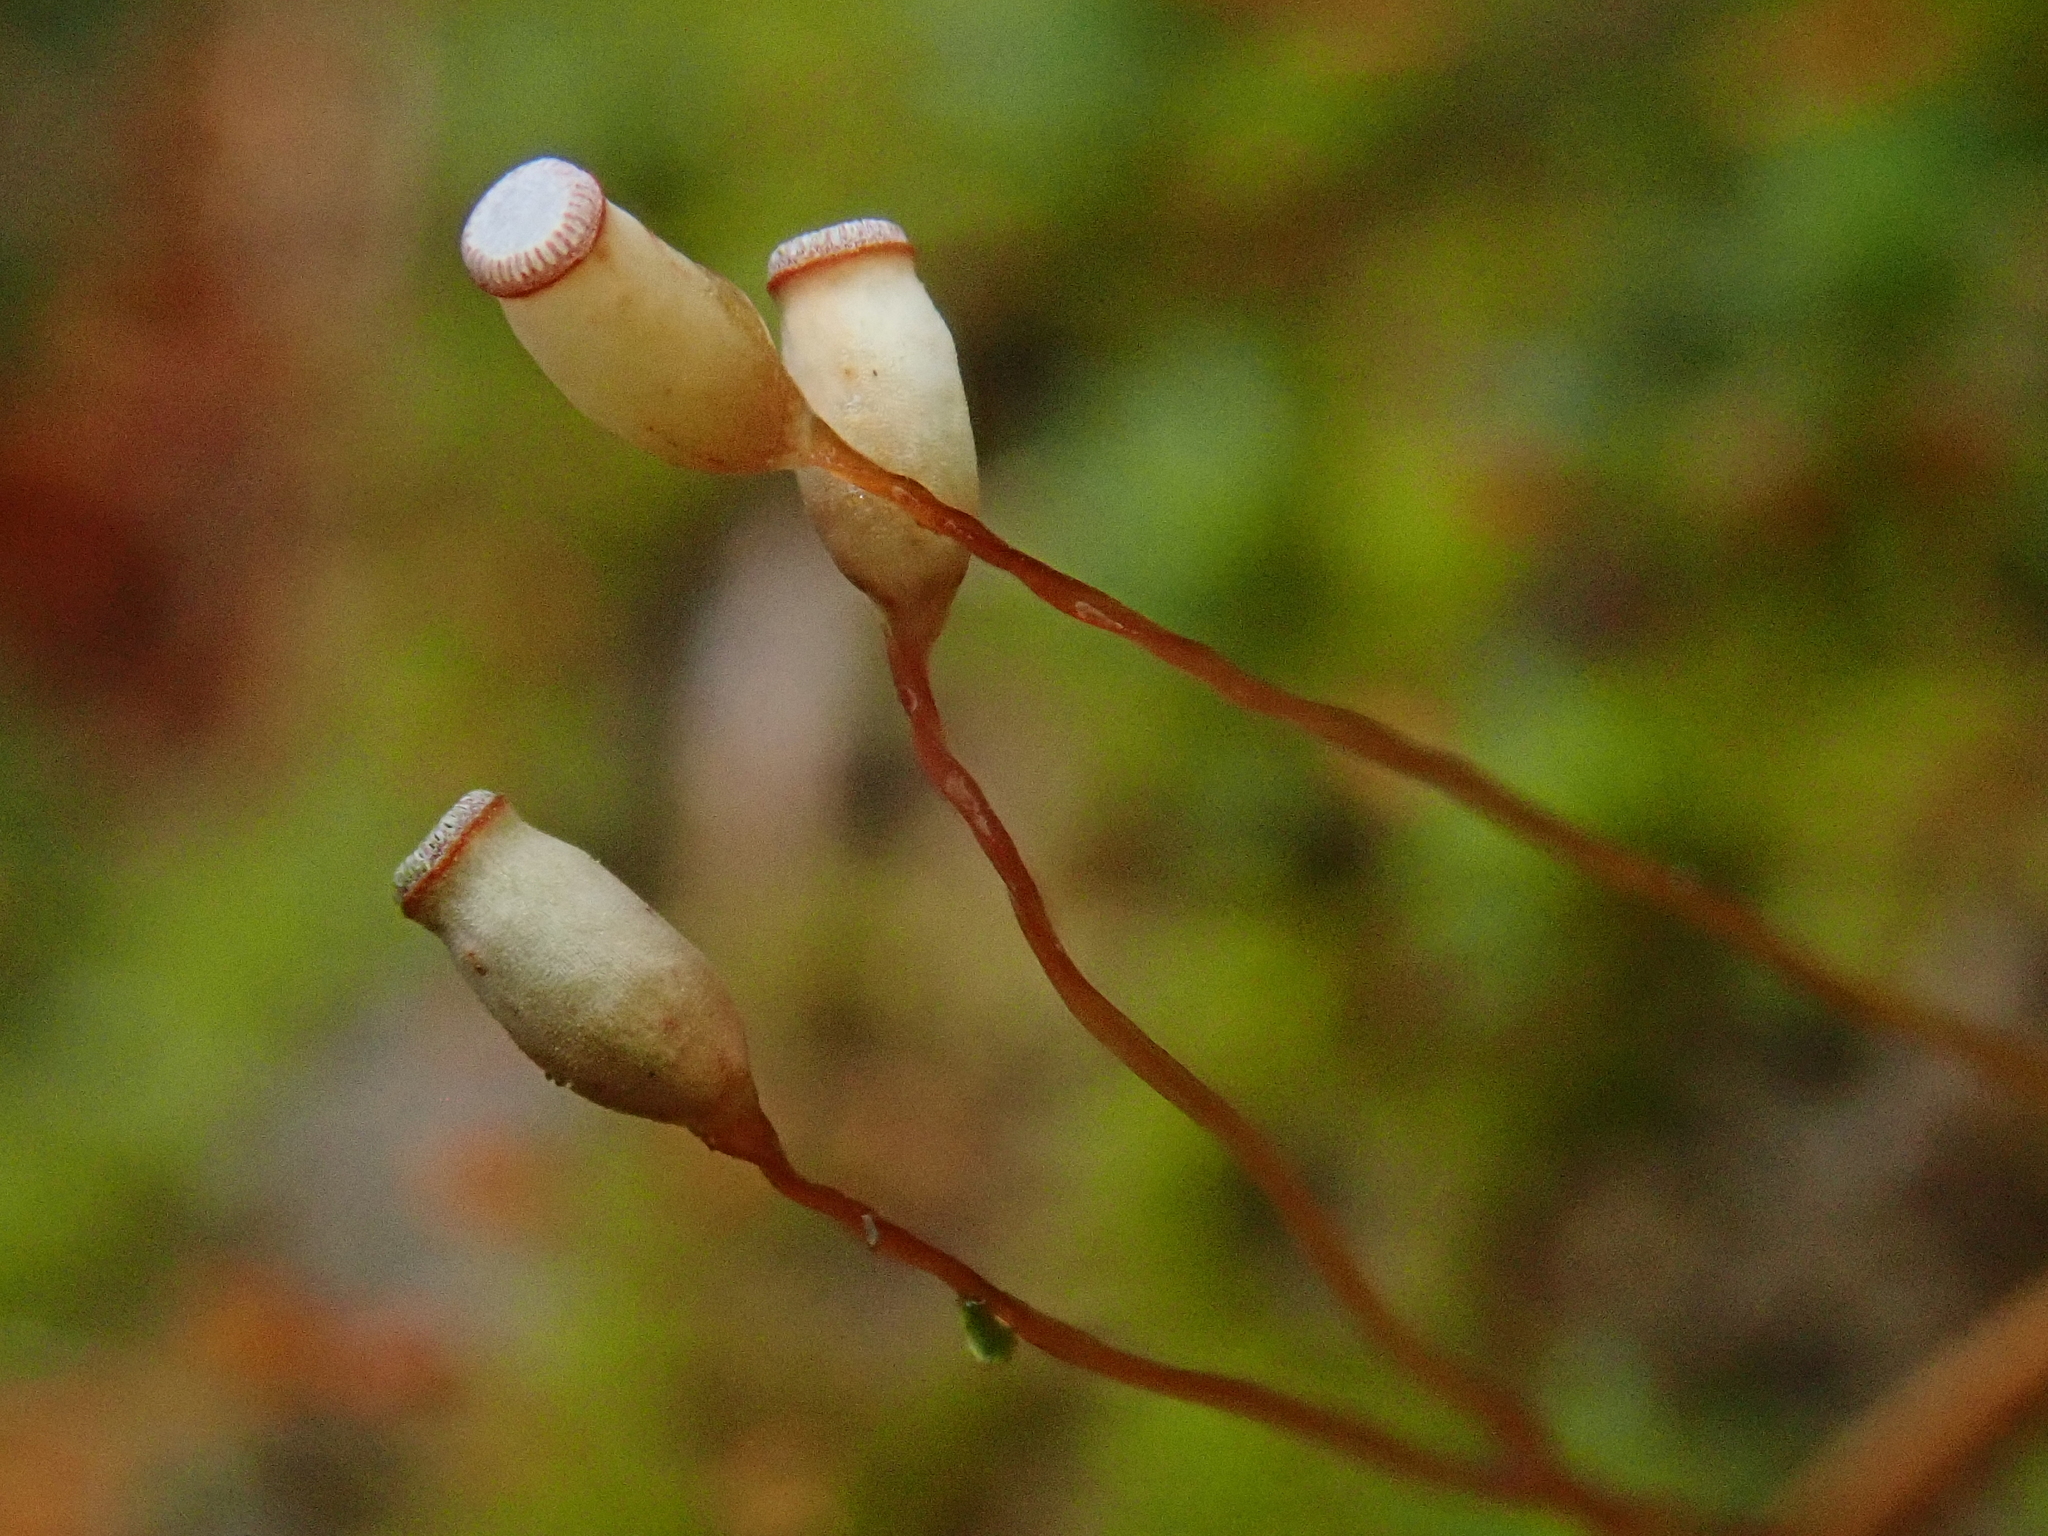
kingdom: Plantae
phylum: Bryophyta
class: Polytrichopsida
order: Polytrichales
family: Polytrichaceae
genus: Pogonatum
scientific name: Pogonatum aloides
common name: Aloe haircap
